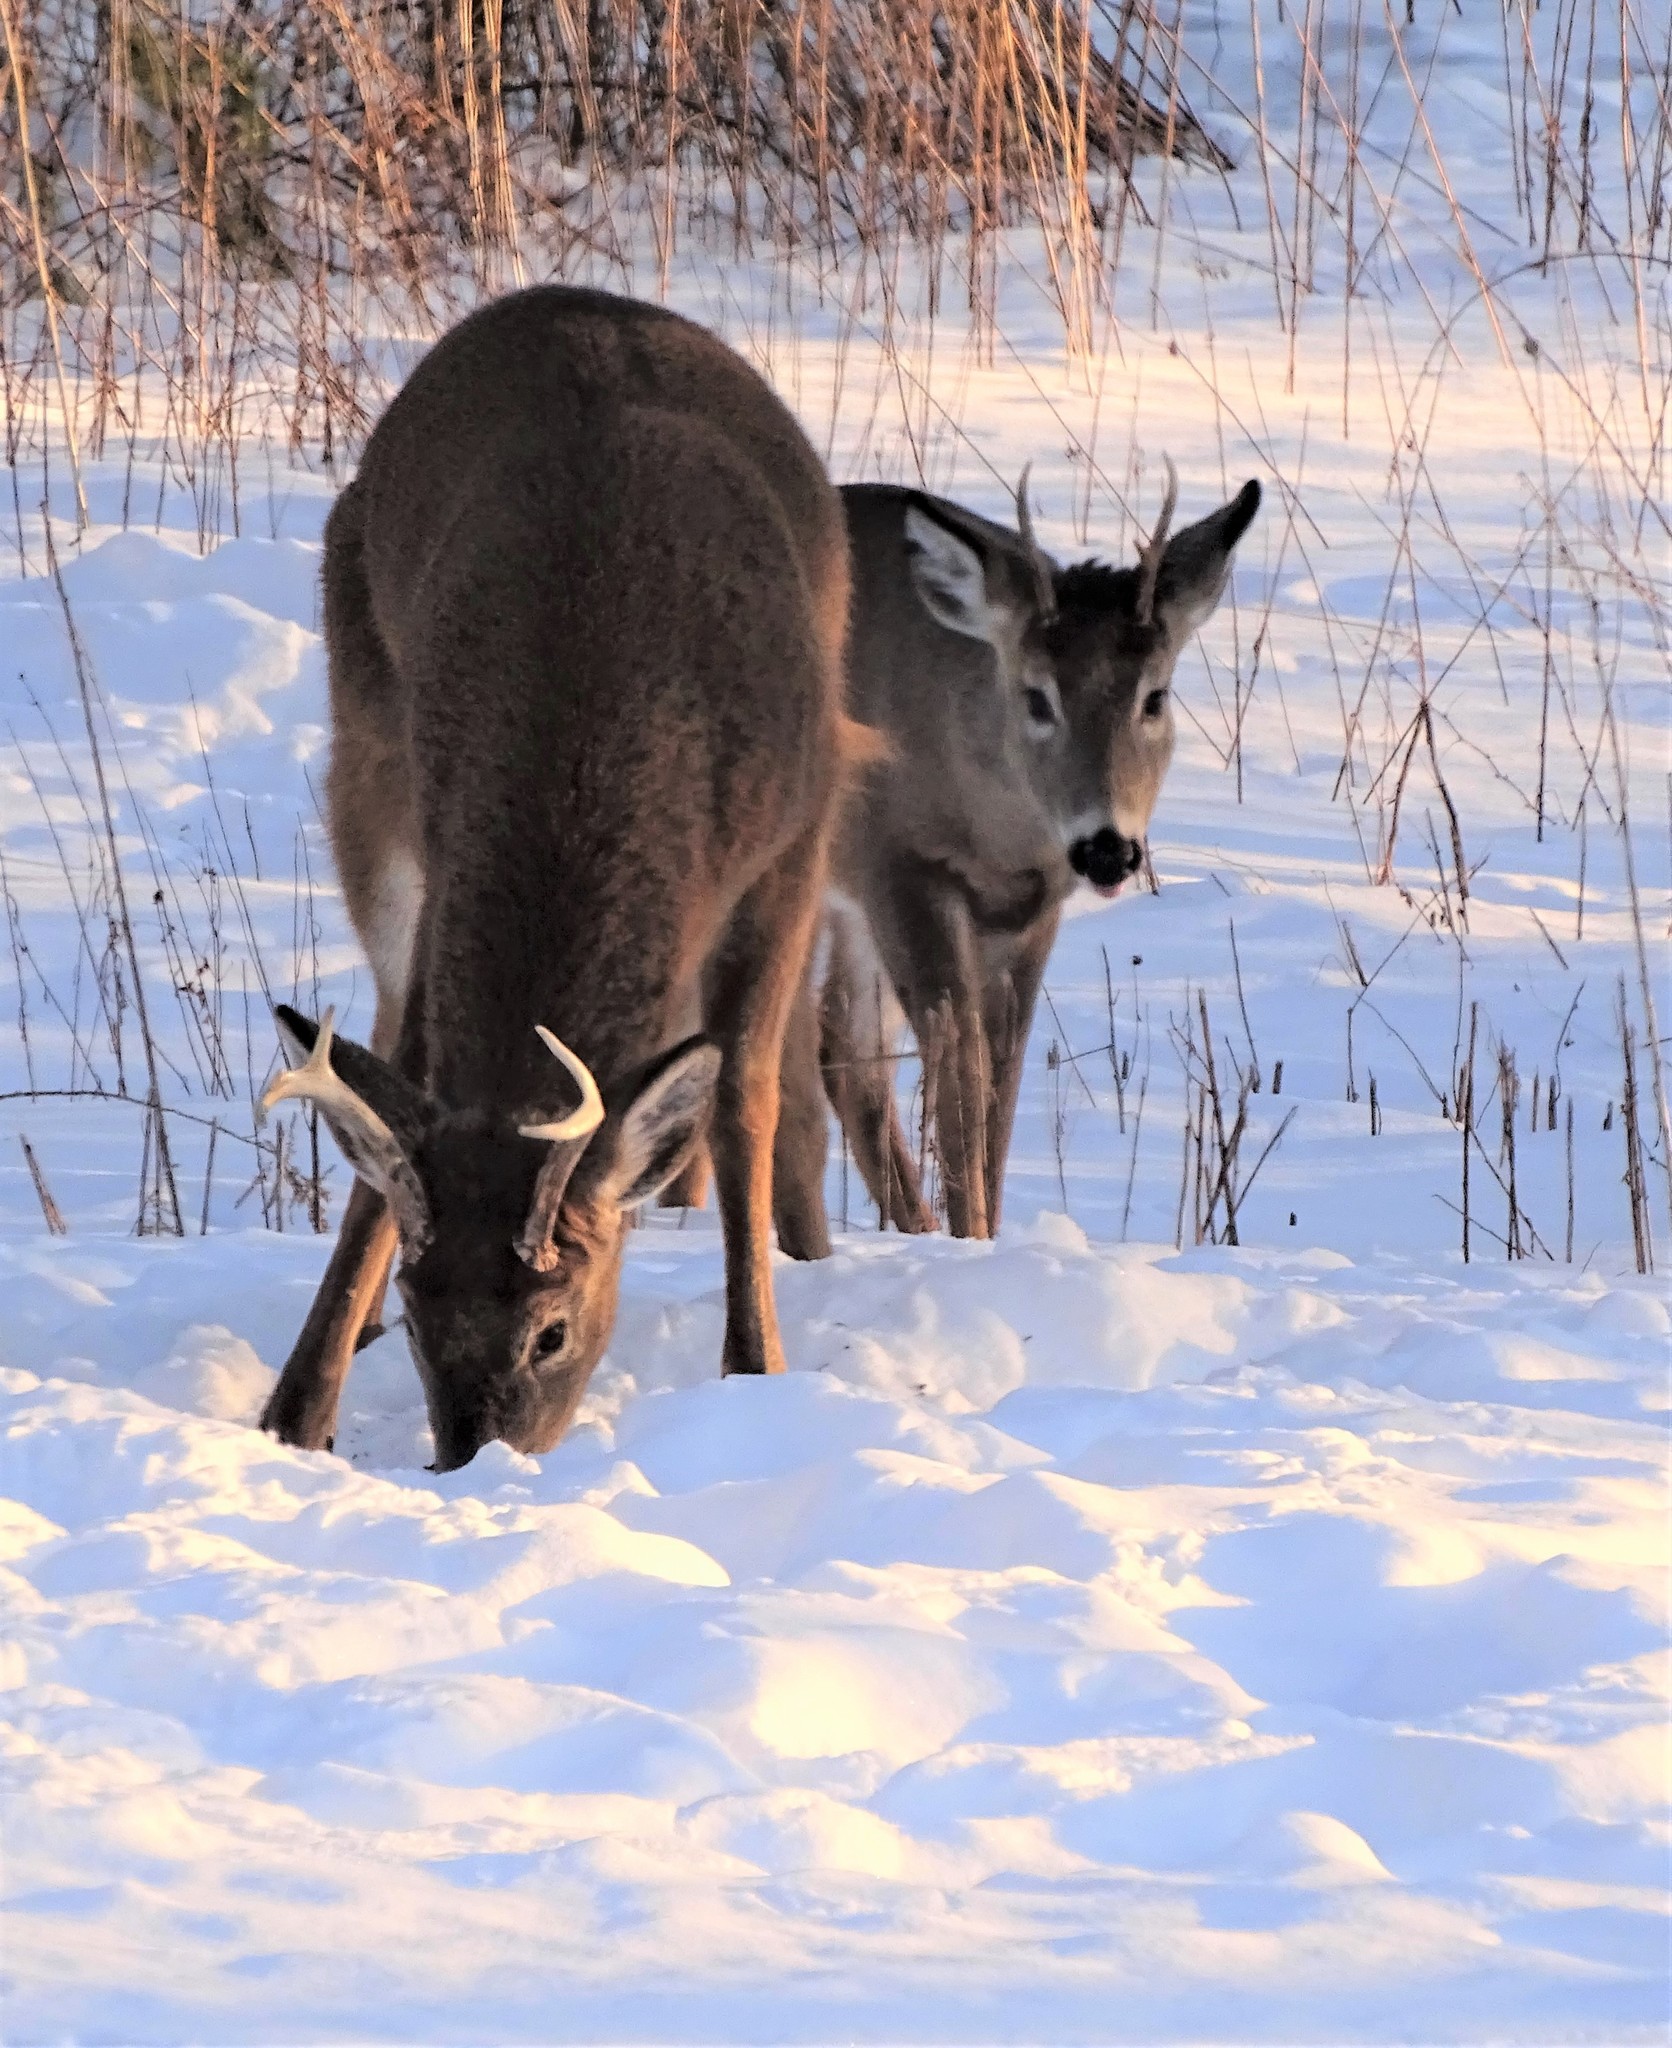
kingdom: Animalia
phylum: Chordata
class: Mammalia
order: Artiodactyla
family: Cervidae
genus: Odocoileus
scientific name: Odocoileus virginianus
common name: White-tailed deer
